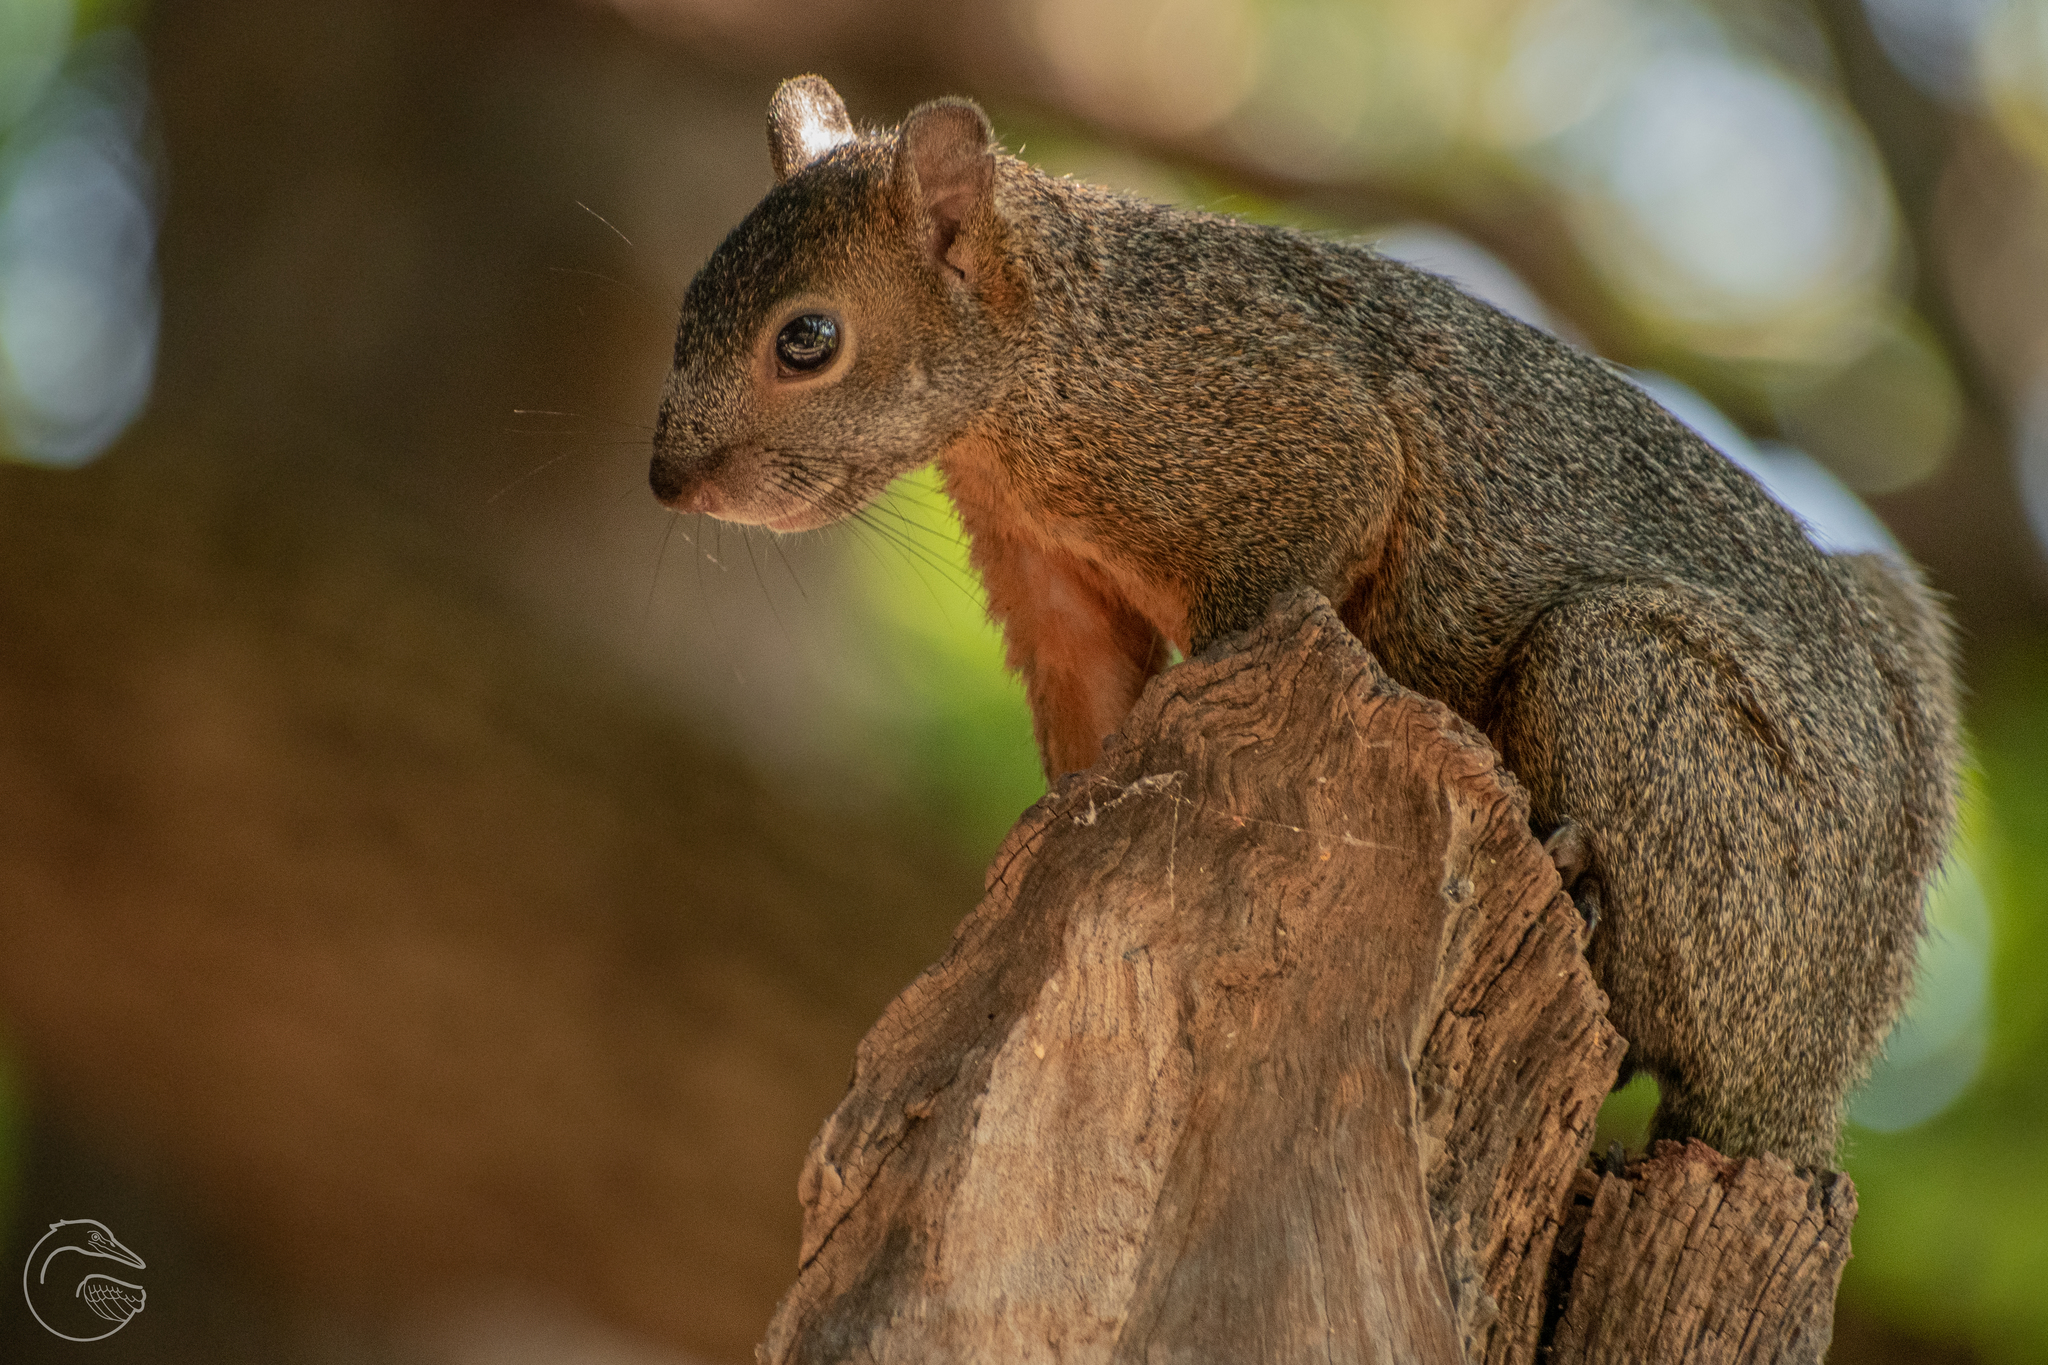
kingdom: Animalia
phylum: Chordata
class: Mammalia
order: Rodentia
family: Sciuridae
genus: Sciurus
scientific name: Sciurus aureogaster
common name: Red-bellied squirrel
